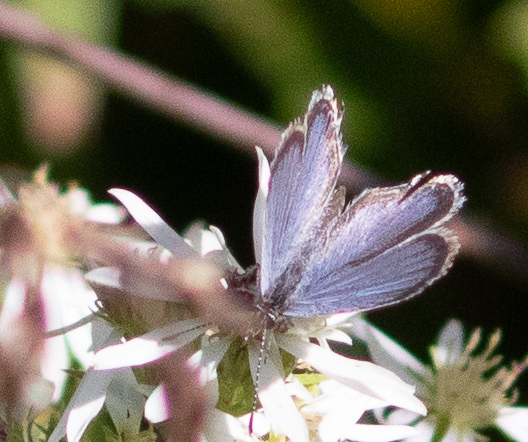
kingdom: Animalia
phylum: Arthropoda
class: Insecta
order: Lepidoptera
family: Lycaenidae
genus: Elkalyce
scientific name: Elkalyce comyntas
